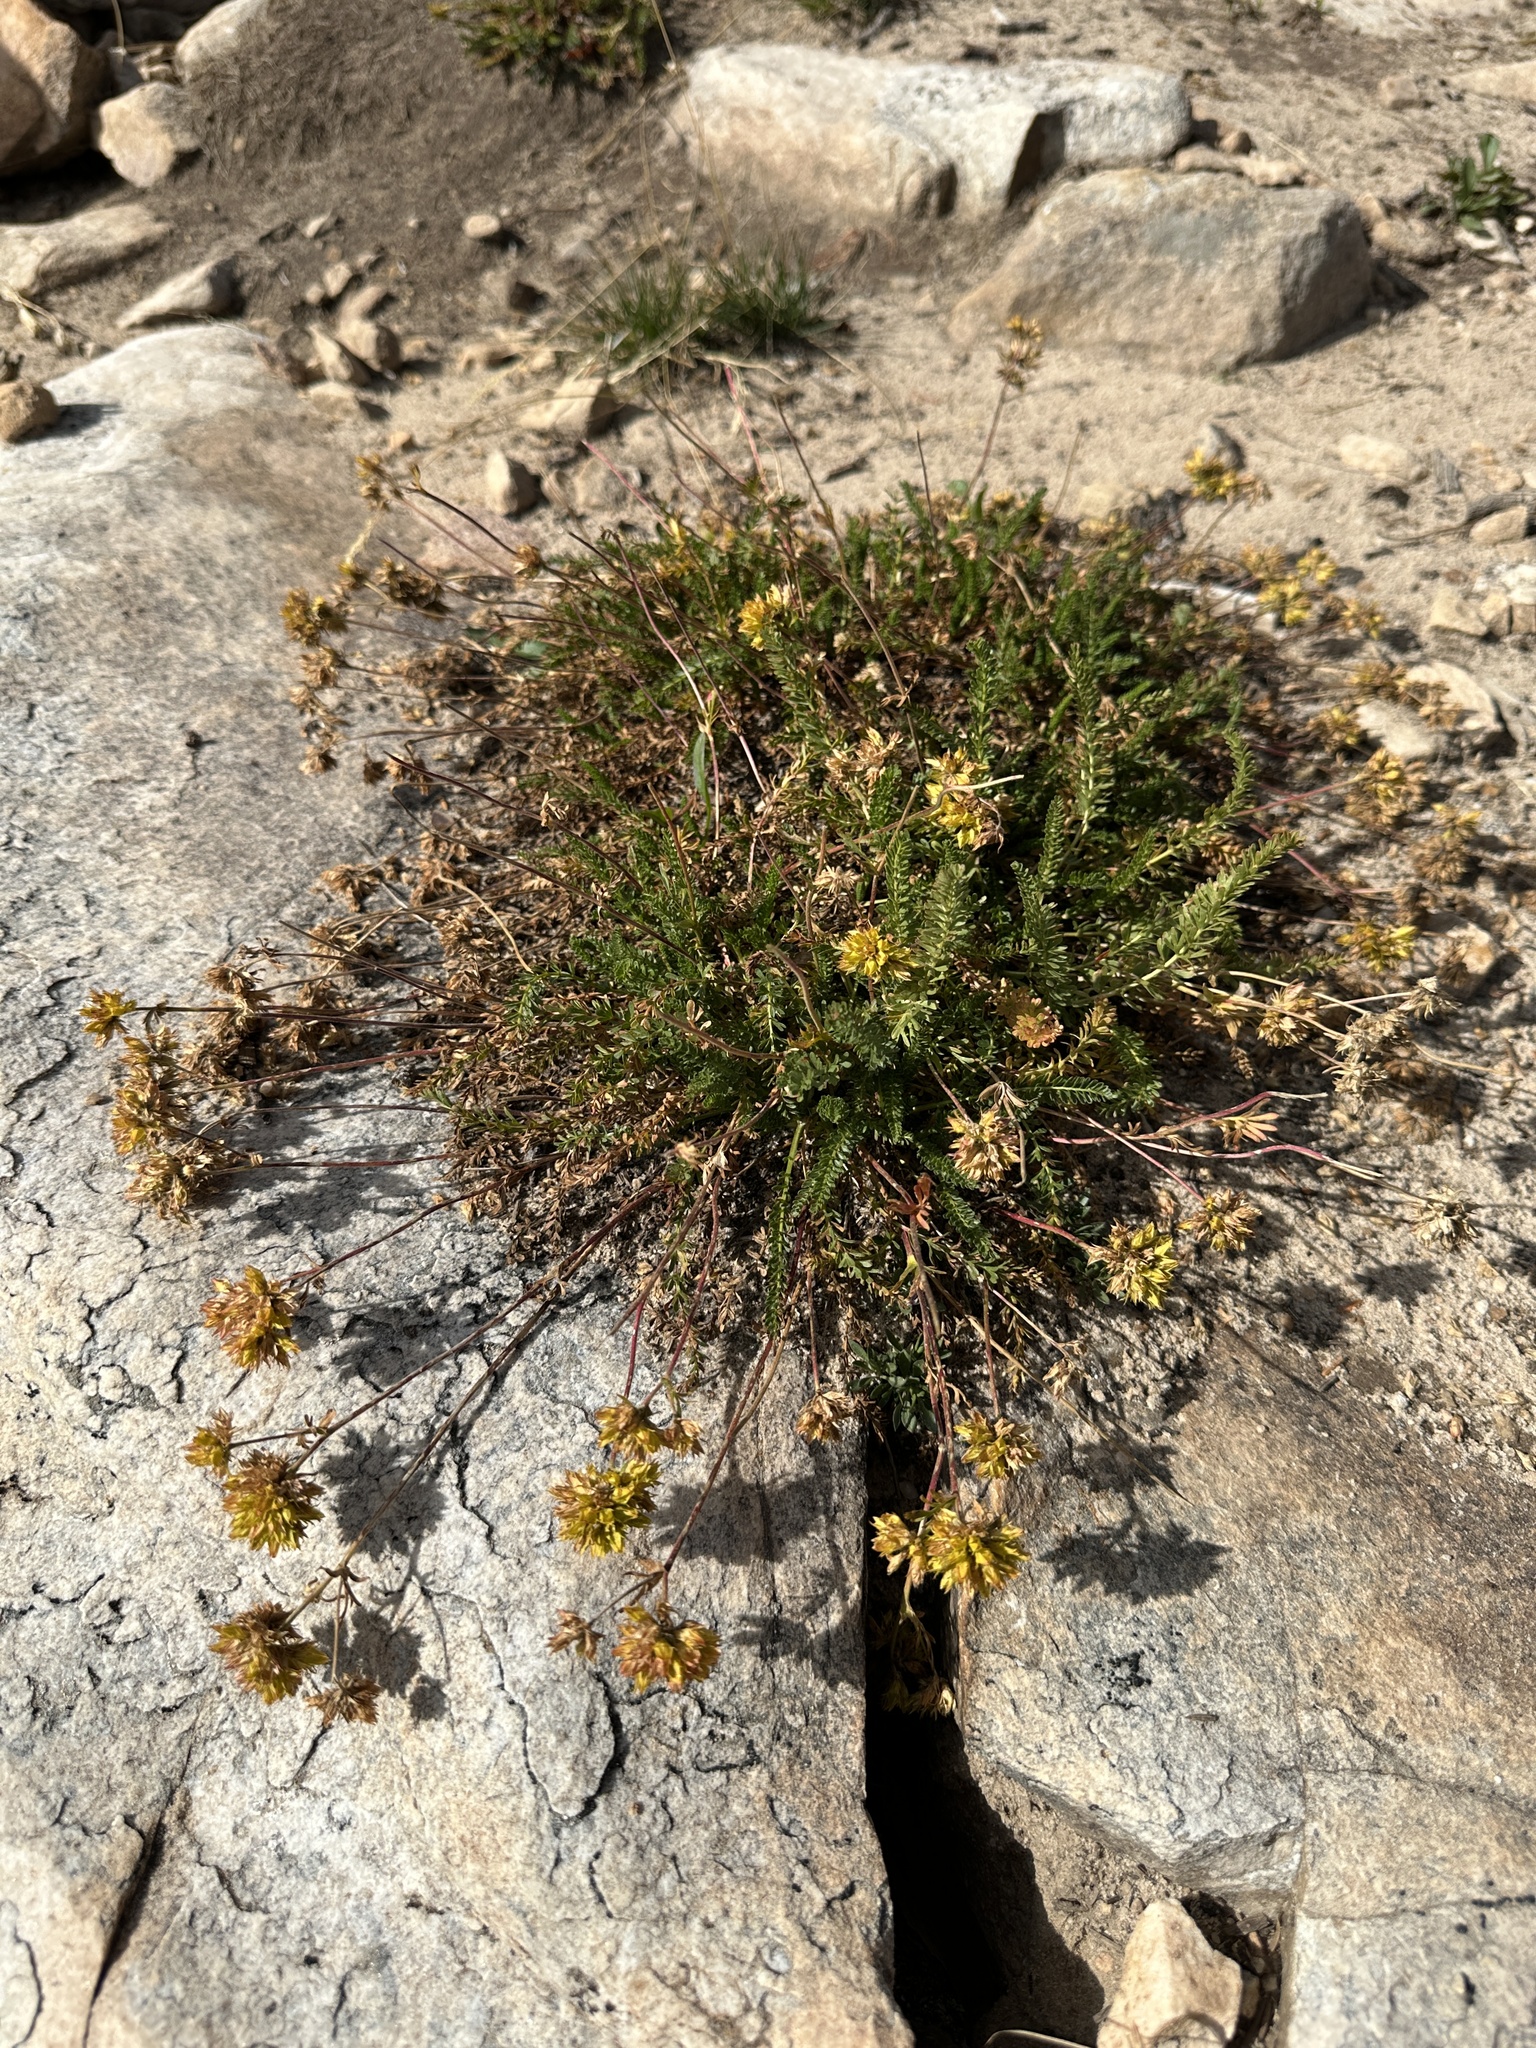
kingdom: Plantae
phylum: Tracheophyta
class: Magnoliopsida
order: Rosales
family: Rosaceae
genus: Potentilla
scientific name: Potentilla gordonii
